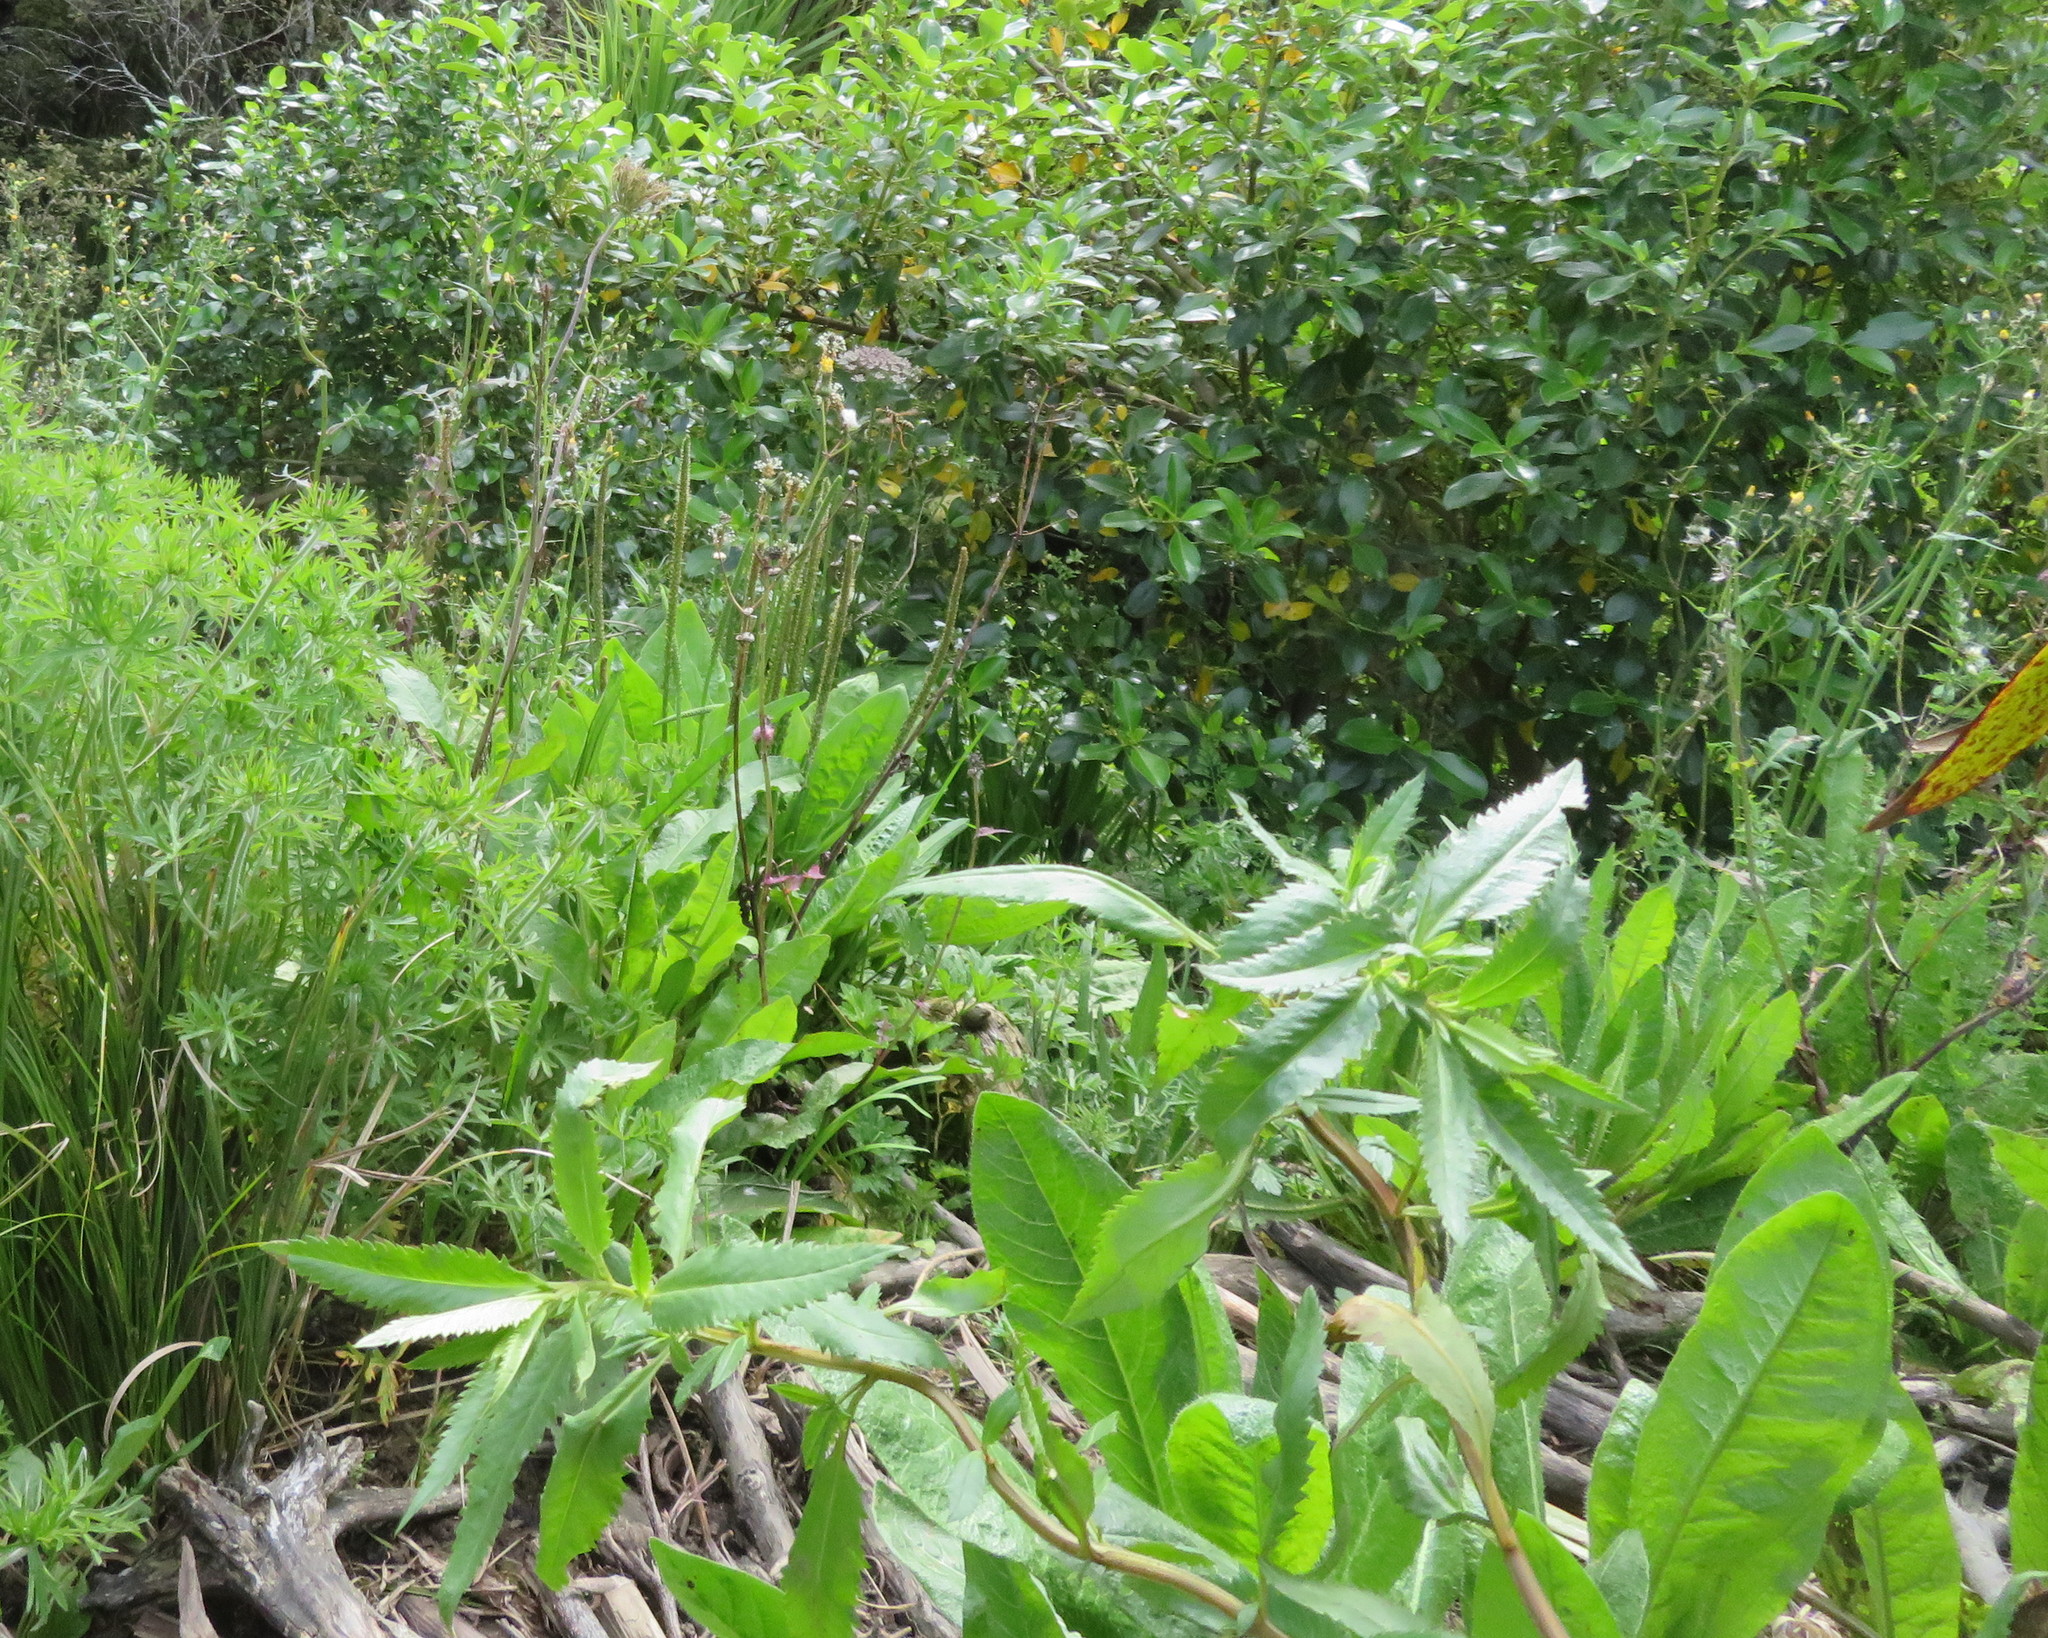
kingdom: Plantae
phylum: Tracheophyta
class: Magnoliopsida
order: Saxifragales
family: Haloragaceae
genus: Haloragis
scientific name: Haloragis erecta
